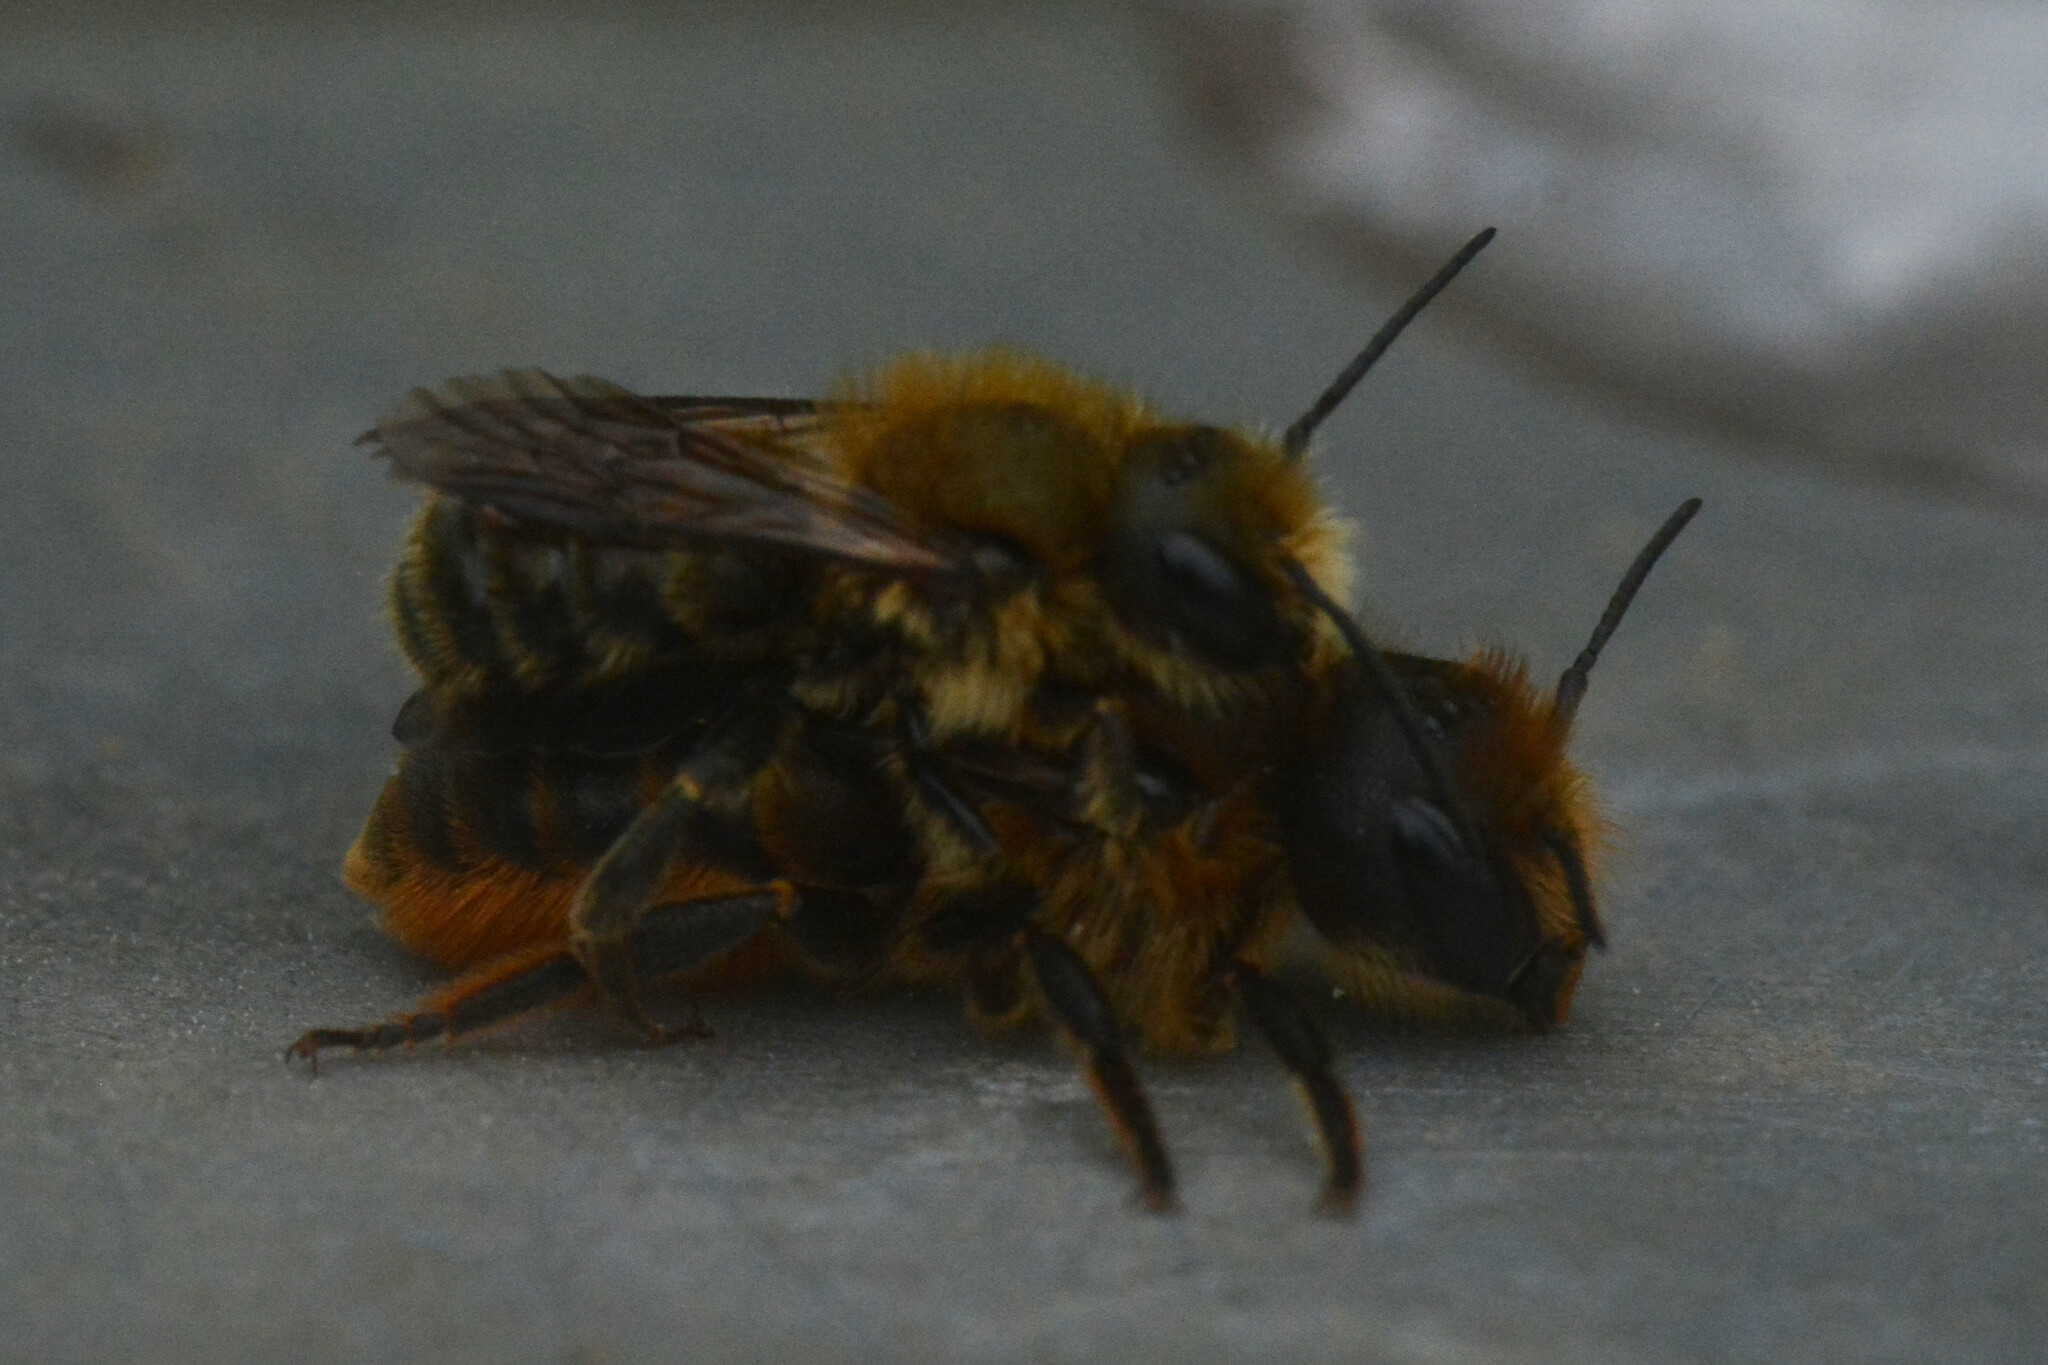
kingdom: Animalia
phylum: Arthropoda
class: Insecta
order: Hymenoptera
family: Megachilidae
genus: Osmia
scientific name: Osmia leaiana
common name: Orange-vented mason bee
